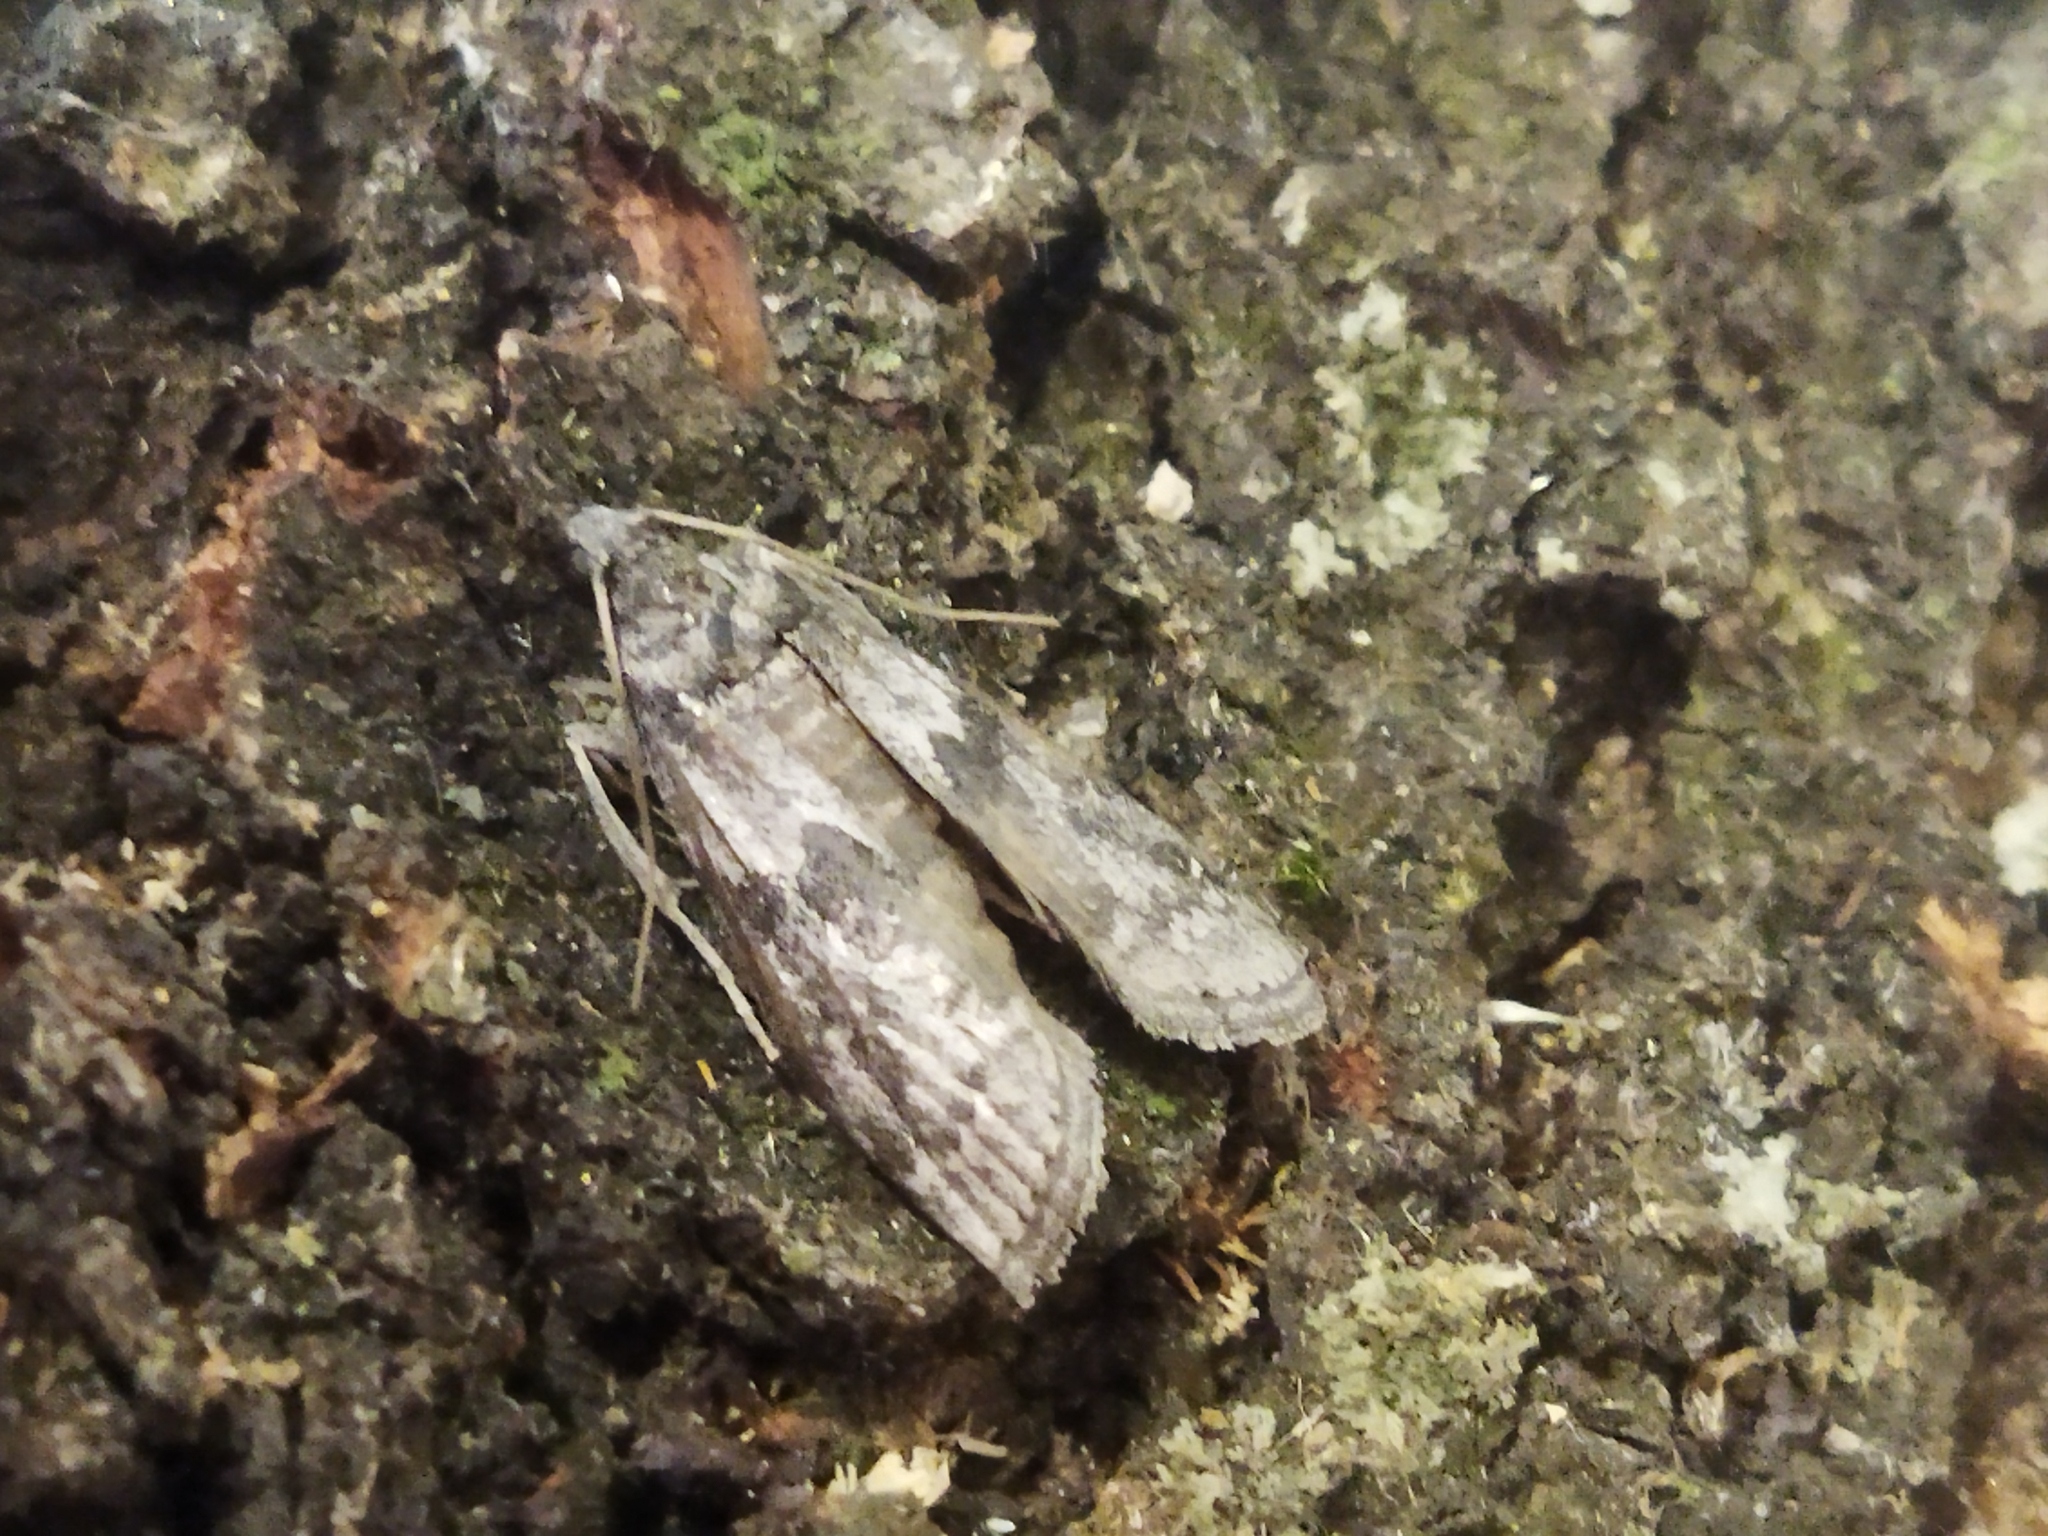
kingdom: Animalia
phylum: Arthropoda
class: Insecta
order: Lepidoptera
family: Pyralidae
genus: Ectomyelois
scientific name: Ectomyelois ceratoniae
